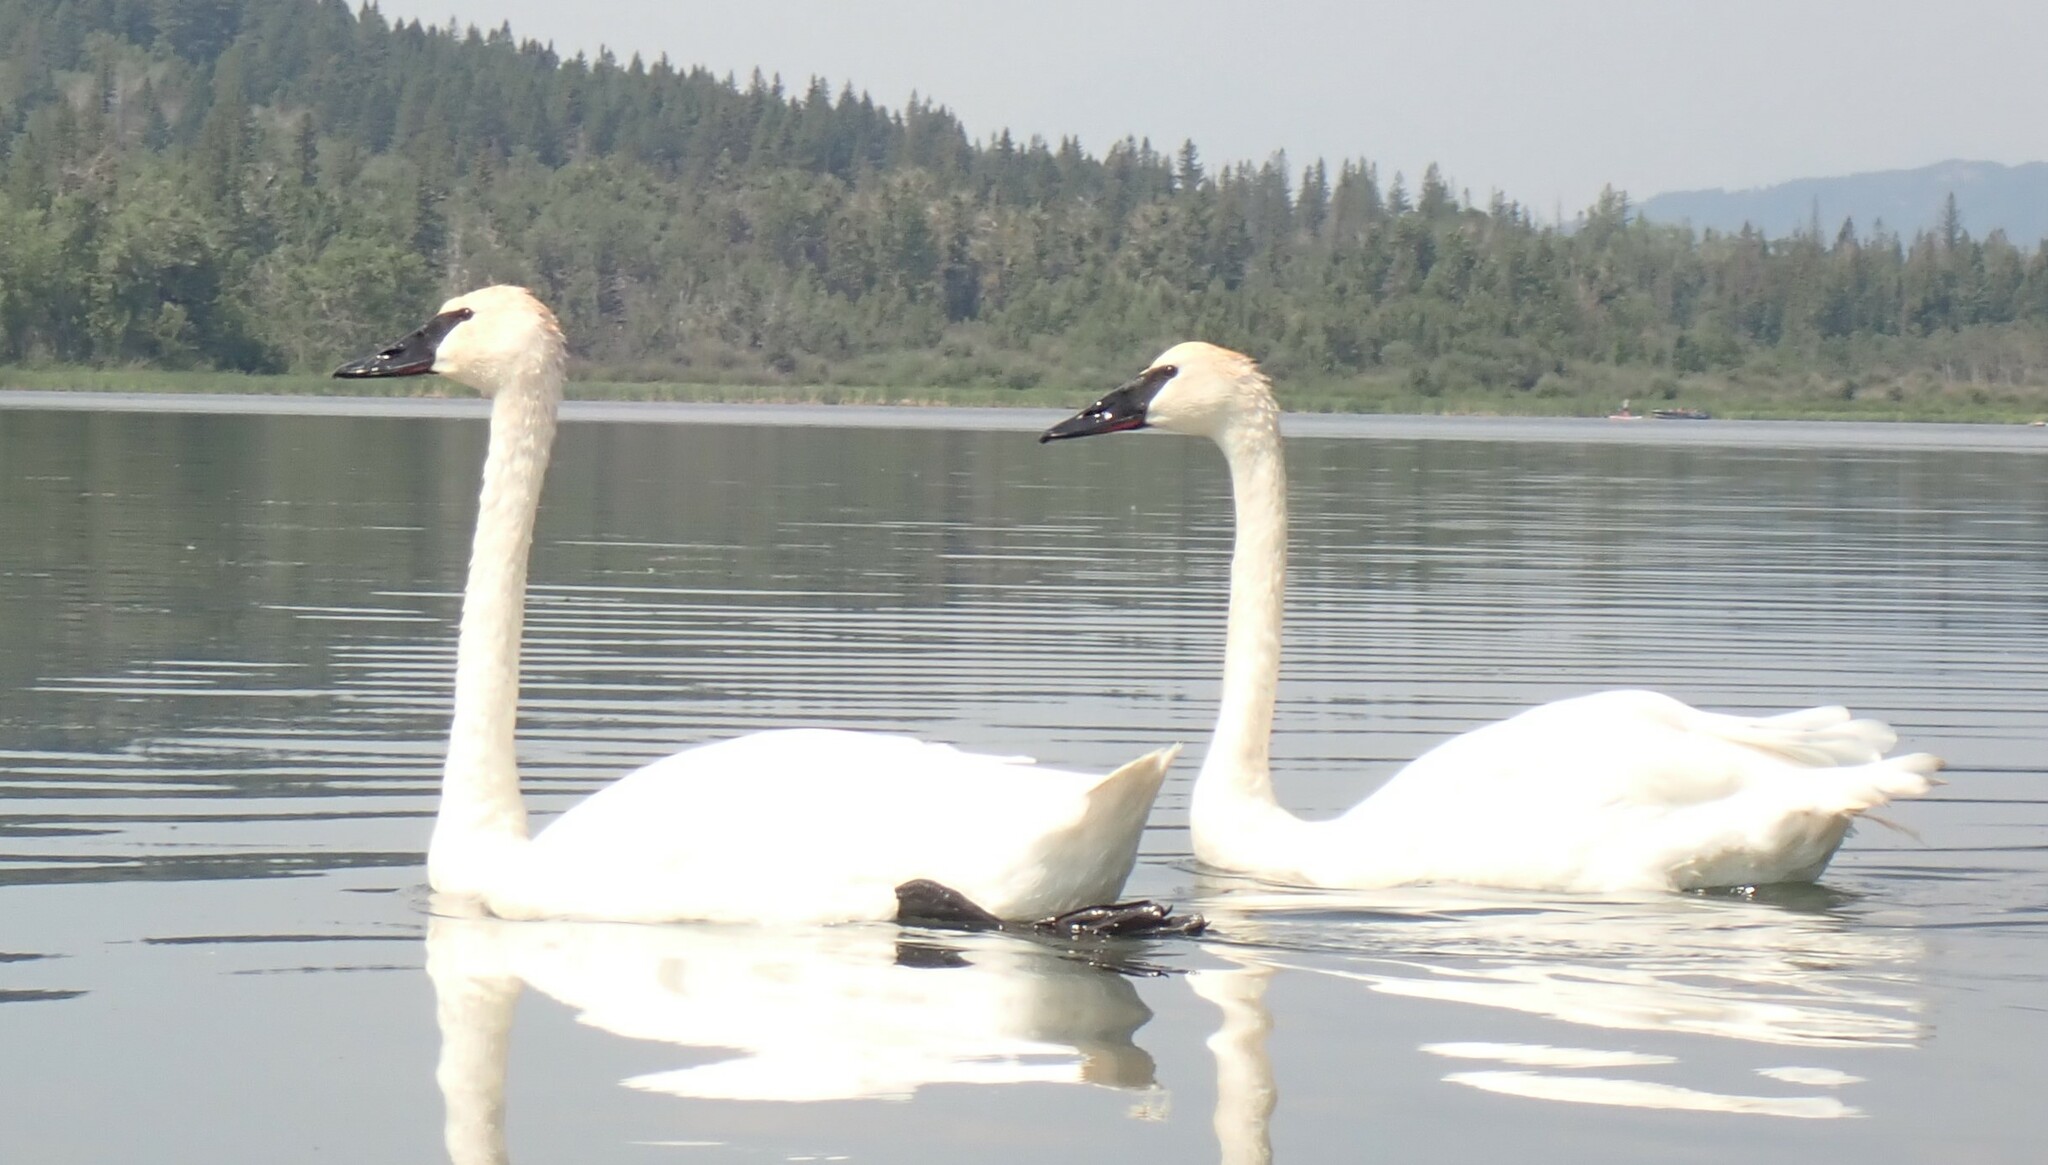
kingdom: Animalia
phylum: Chordata
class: Aves
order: Anseriformes
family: Anatidae
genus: Cygnus
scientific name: Cygnus buccinator
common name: Trumpeter swan
